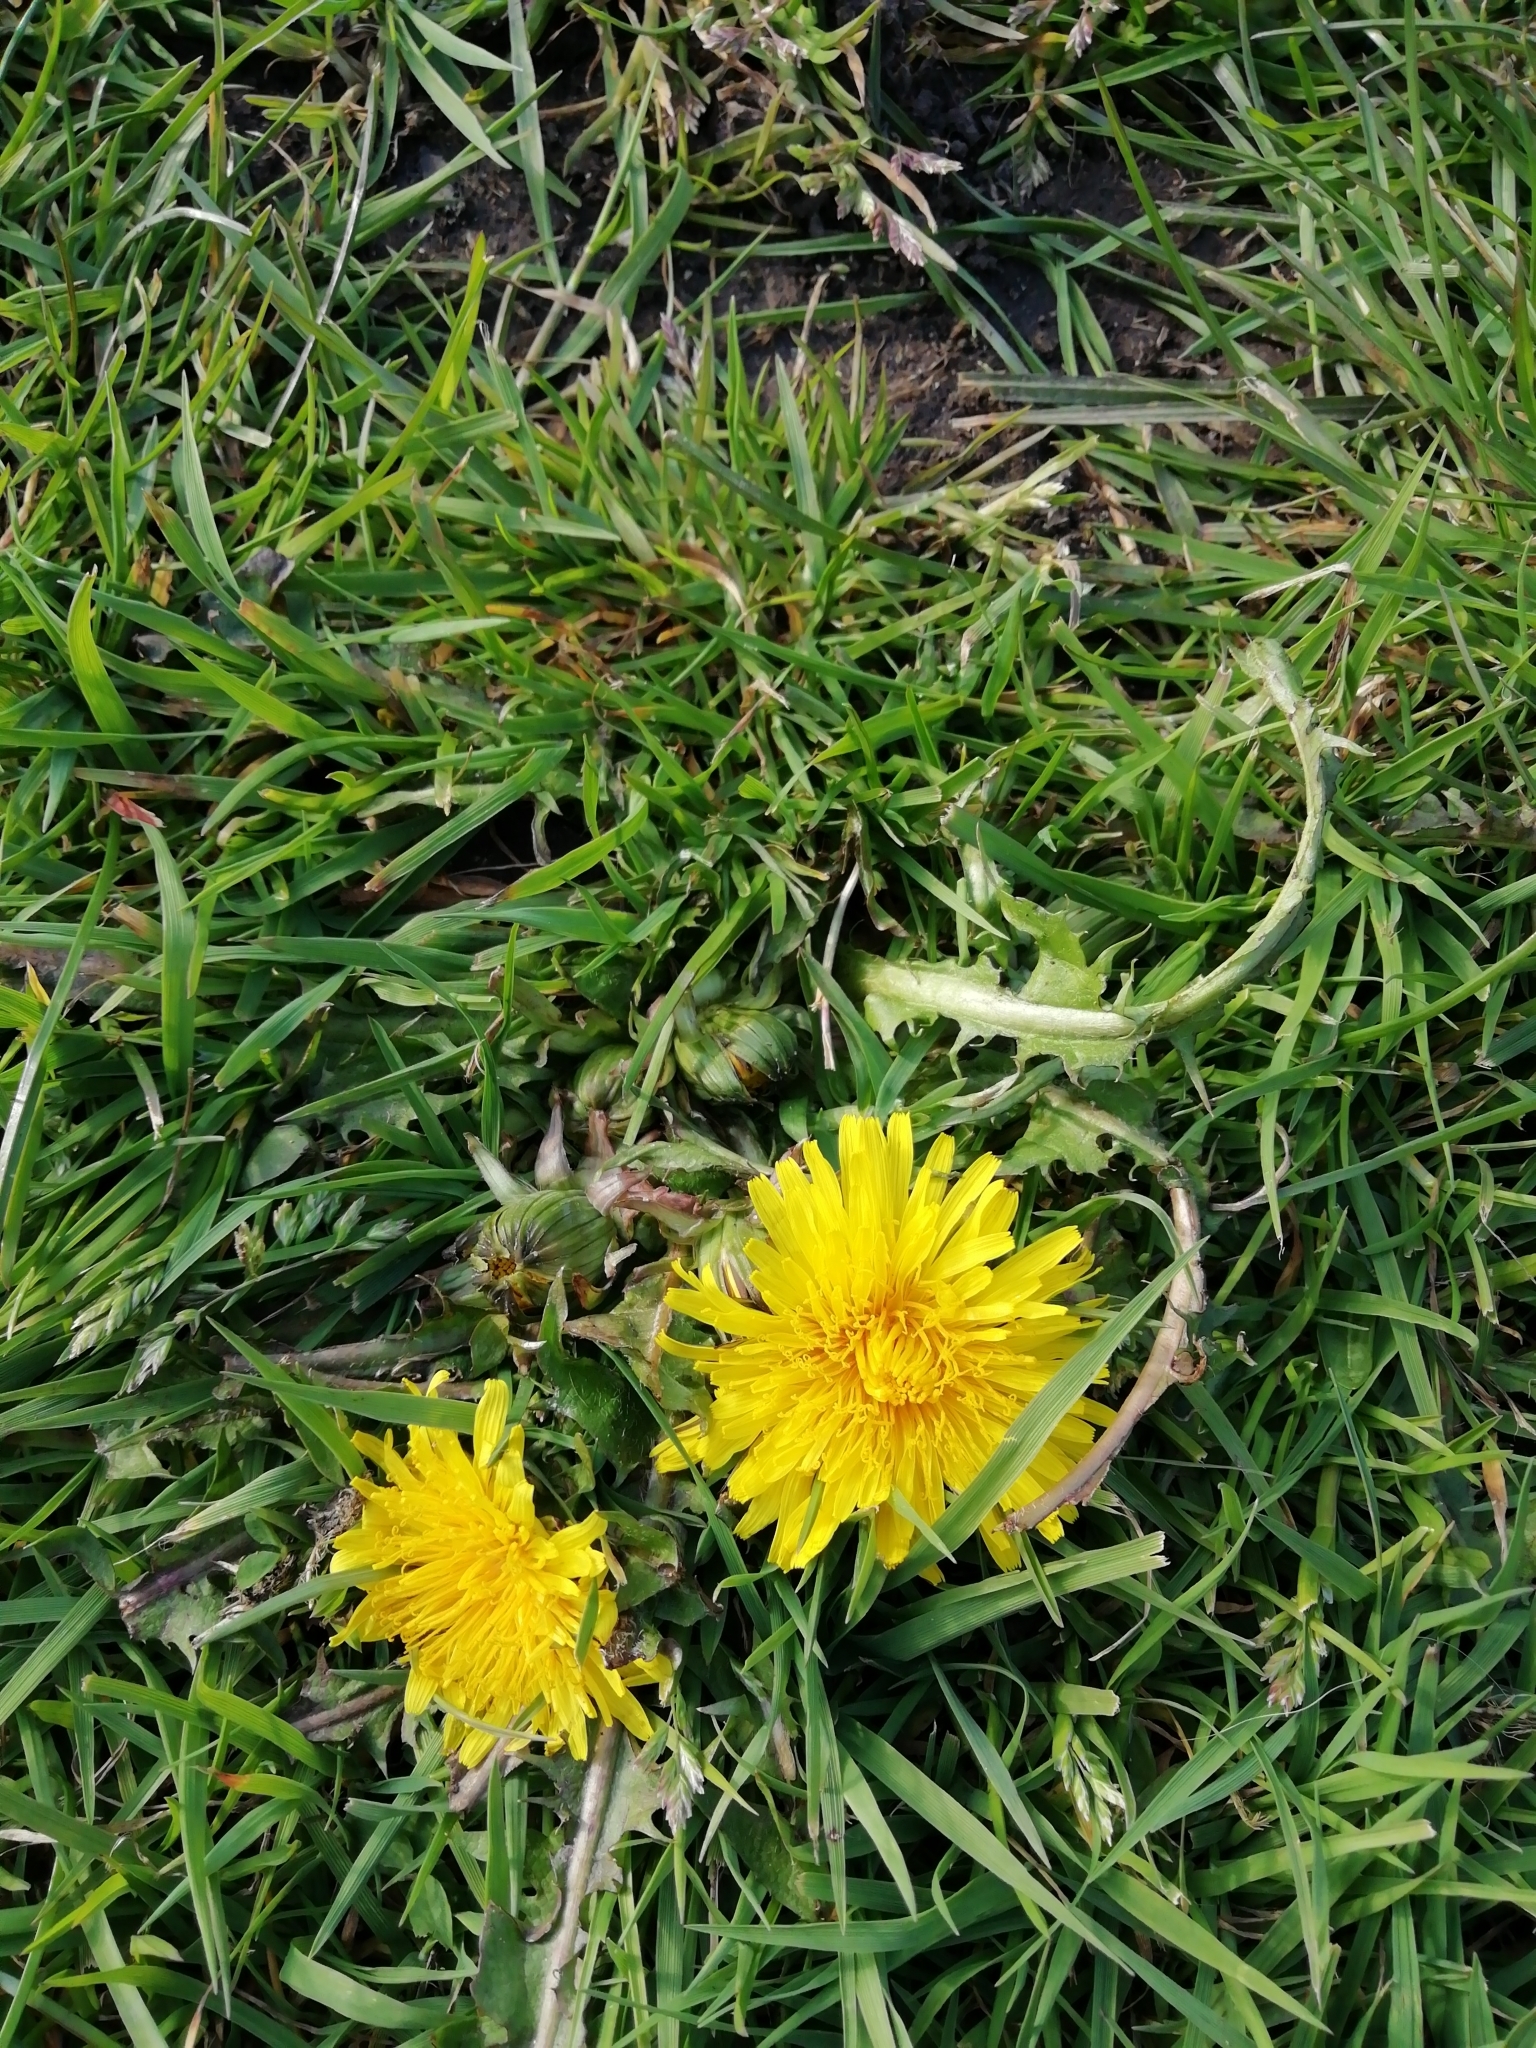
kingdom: Plantae
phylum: Tracheophyta
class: Magnoliopsida
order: Asterales
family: Asteraceae
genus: Taraxacum
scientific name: Taraxacum officinale
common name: Common dandelion
